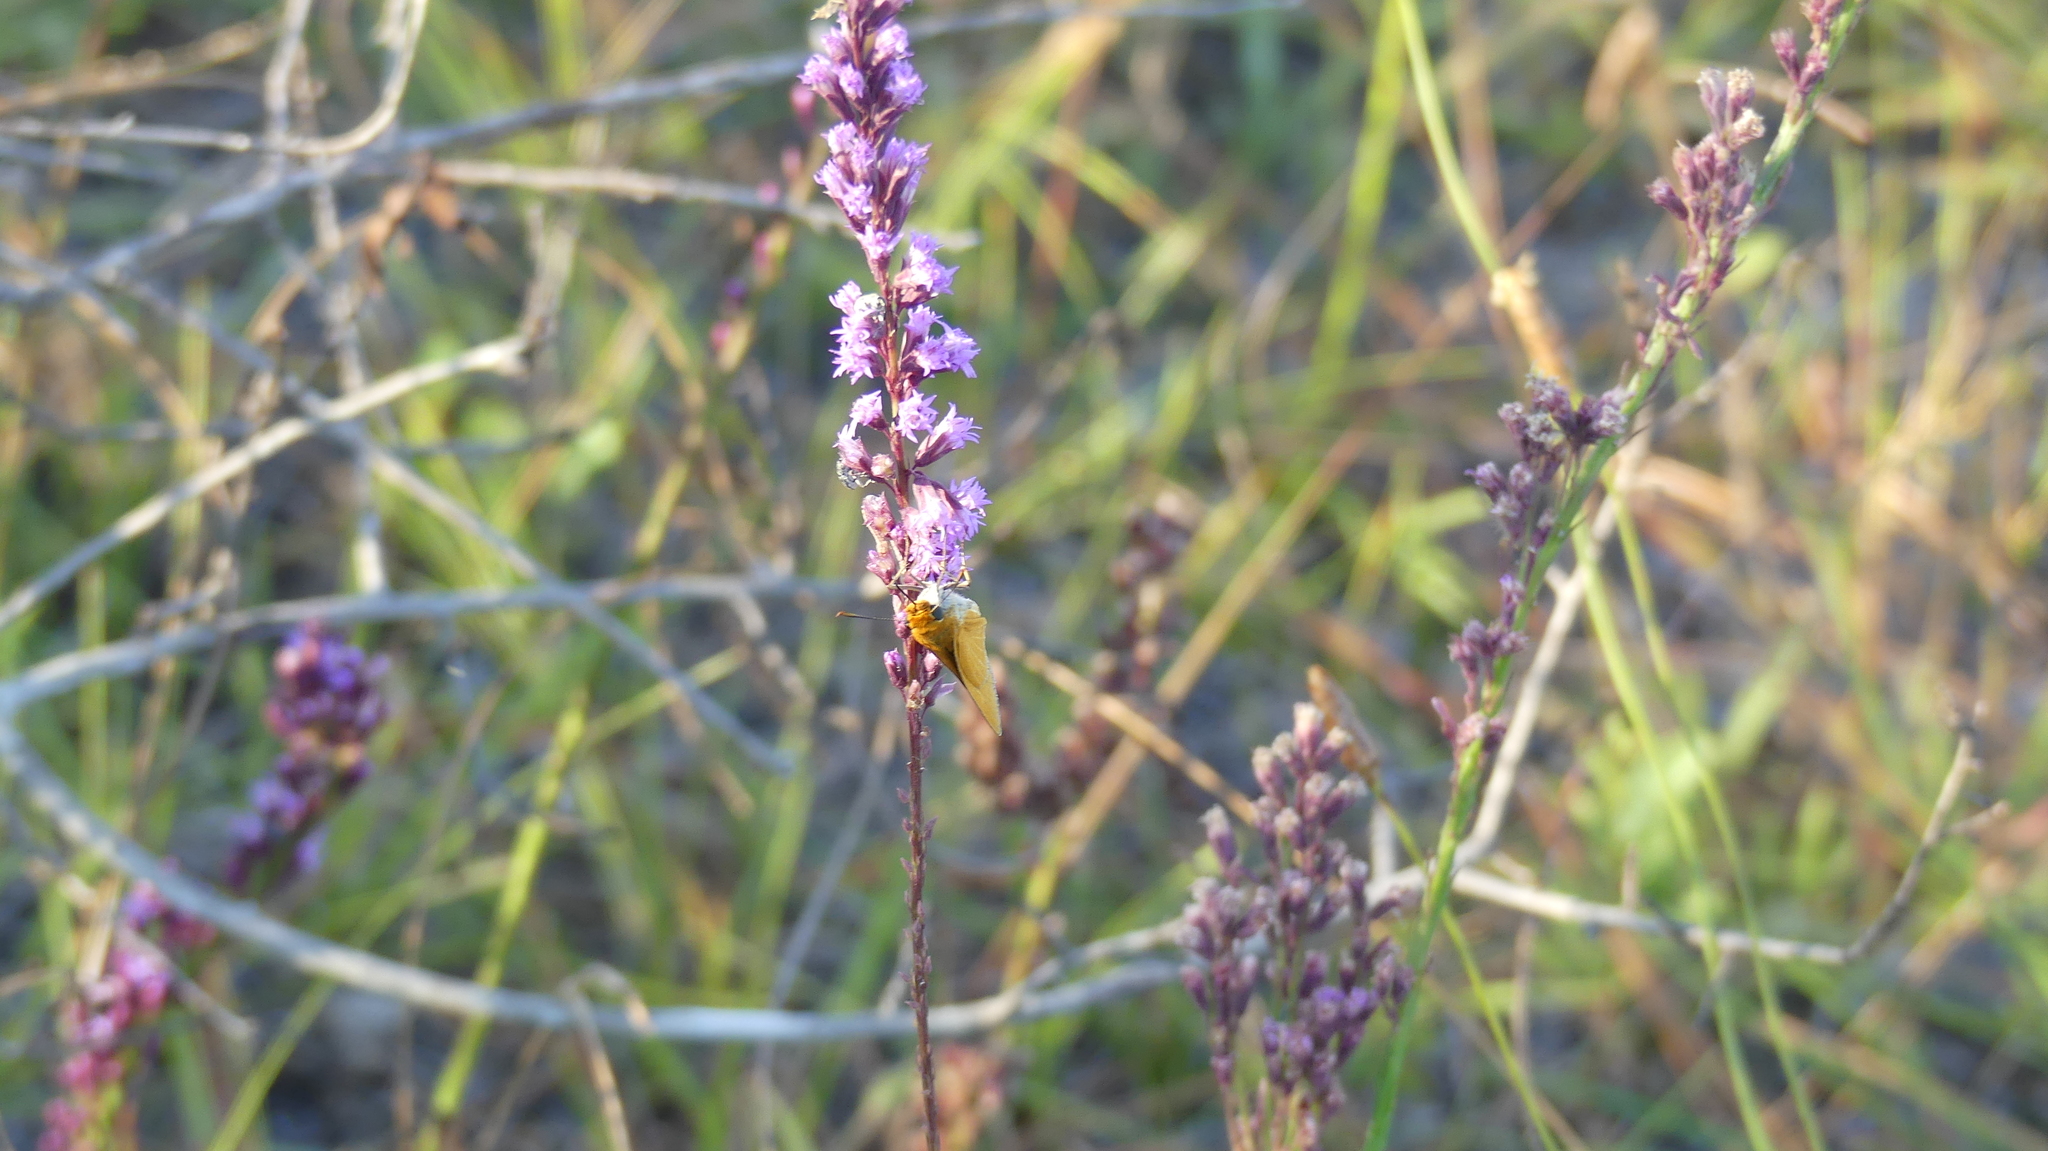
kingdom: Animalia
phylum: Arthropoda
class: Insecta
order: Lepidoptera
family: Hesperiidae
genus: Euphyes
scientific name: Euphyes arpa
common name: Palmetto skipper
